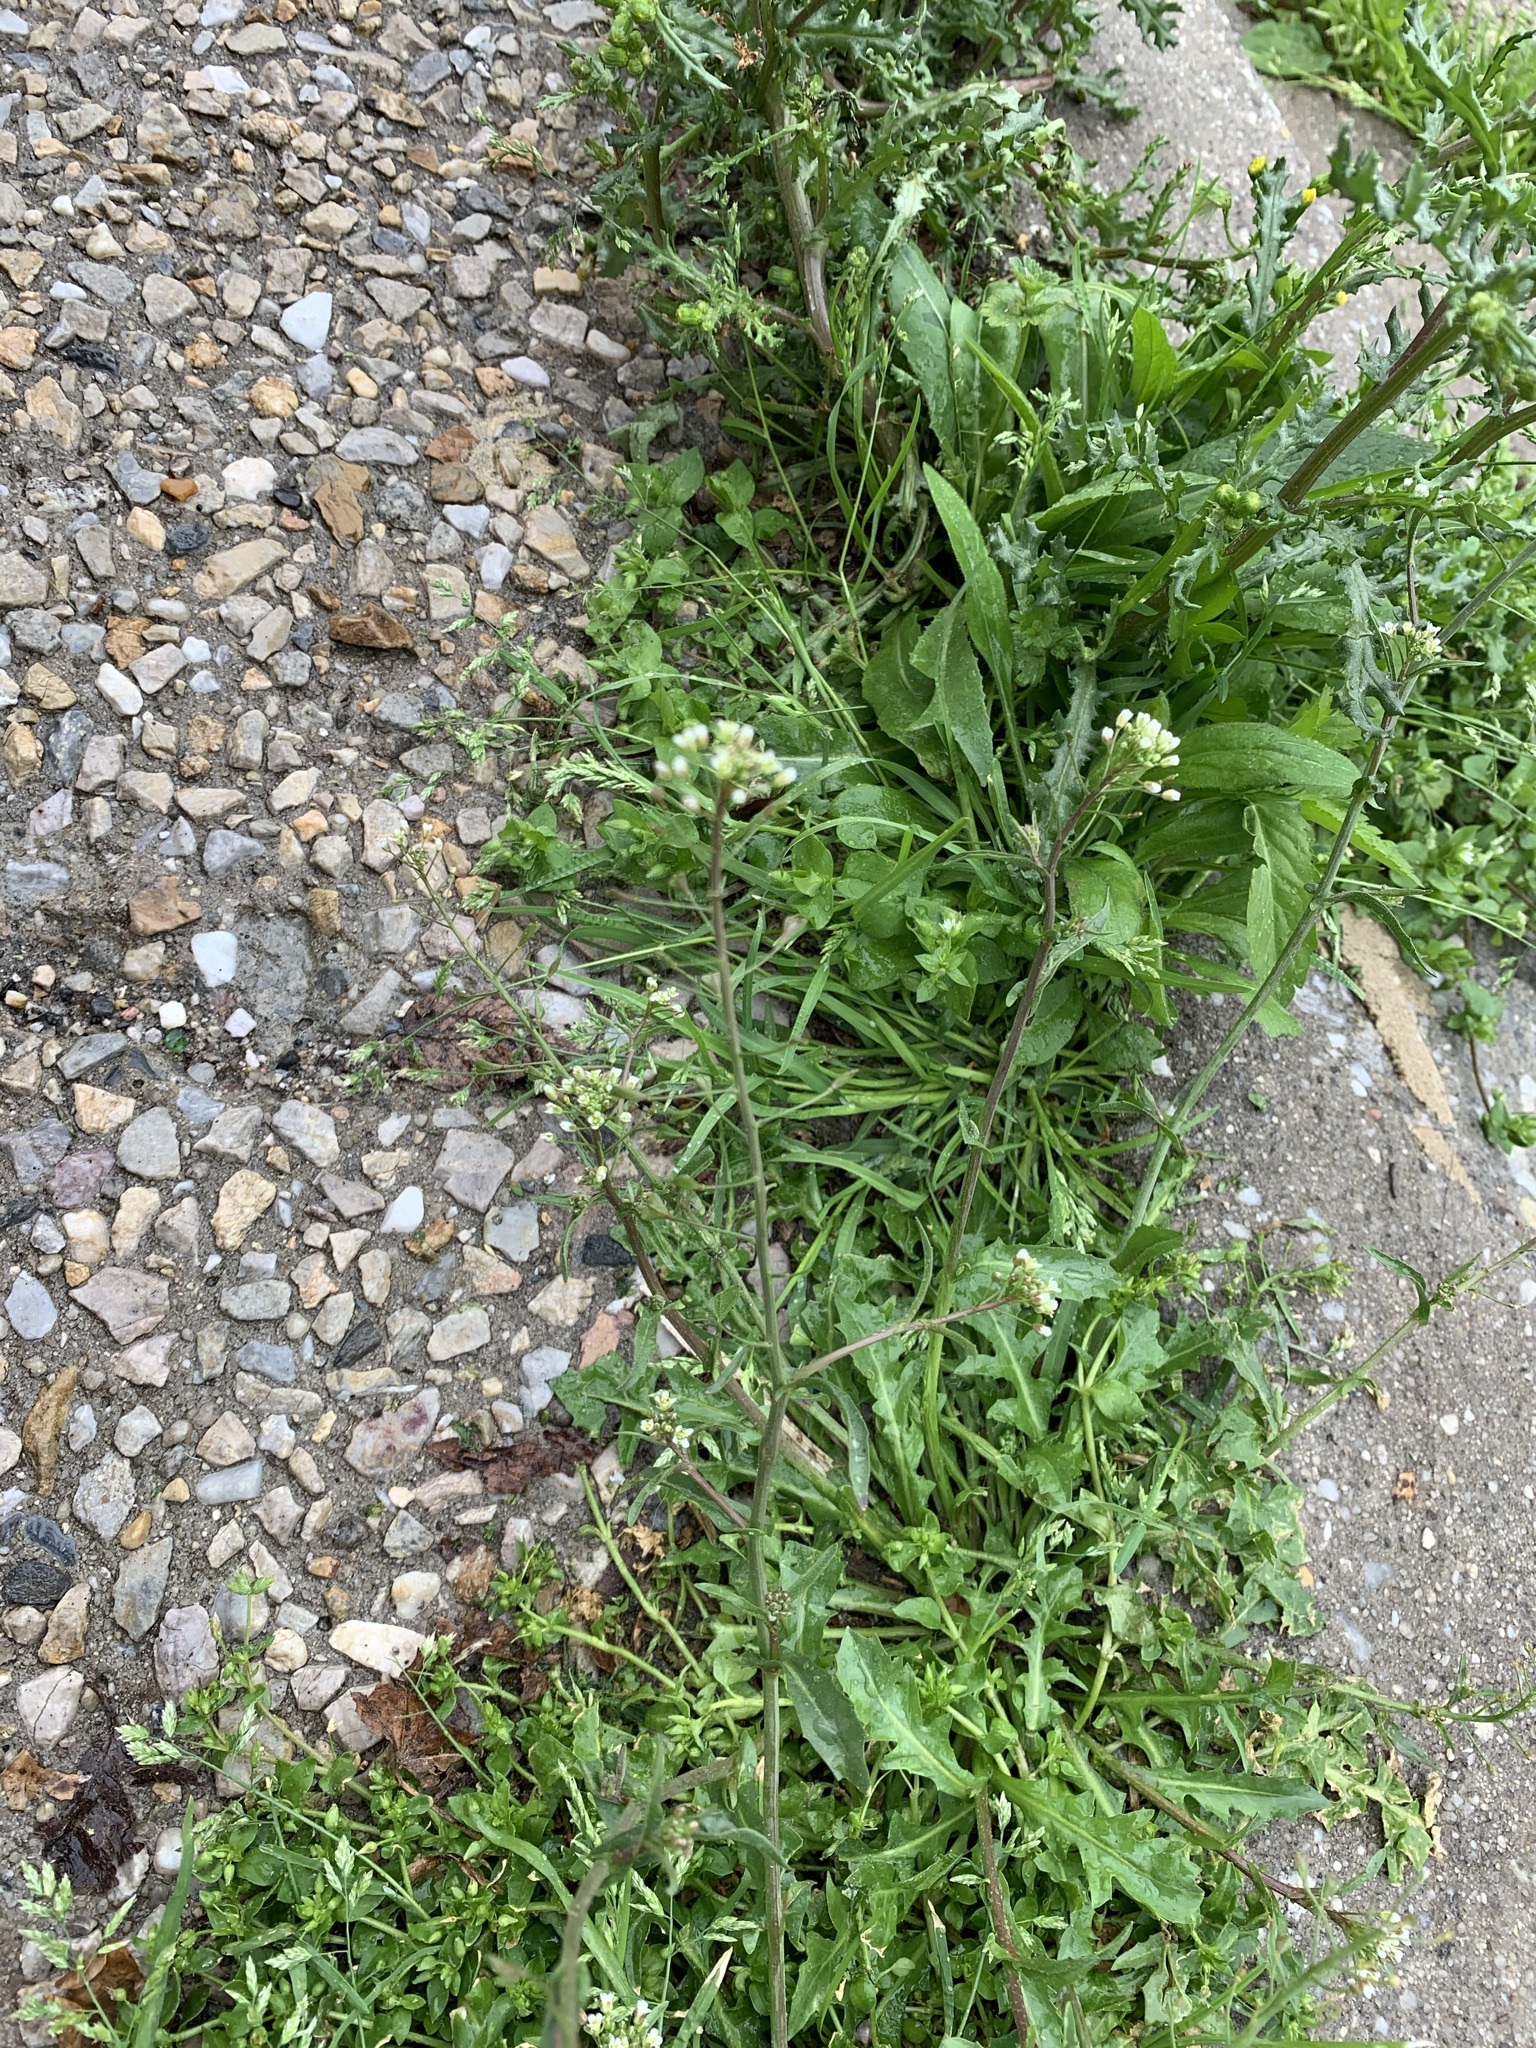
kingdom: Plantae
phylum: Tracheophyta
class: Magnoliopsida
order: Brassicales
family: Brassicaceae
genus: Capsella
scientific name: Capsella bursa-pastoris
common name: Shepherd's purse
